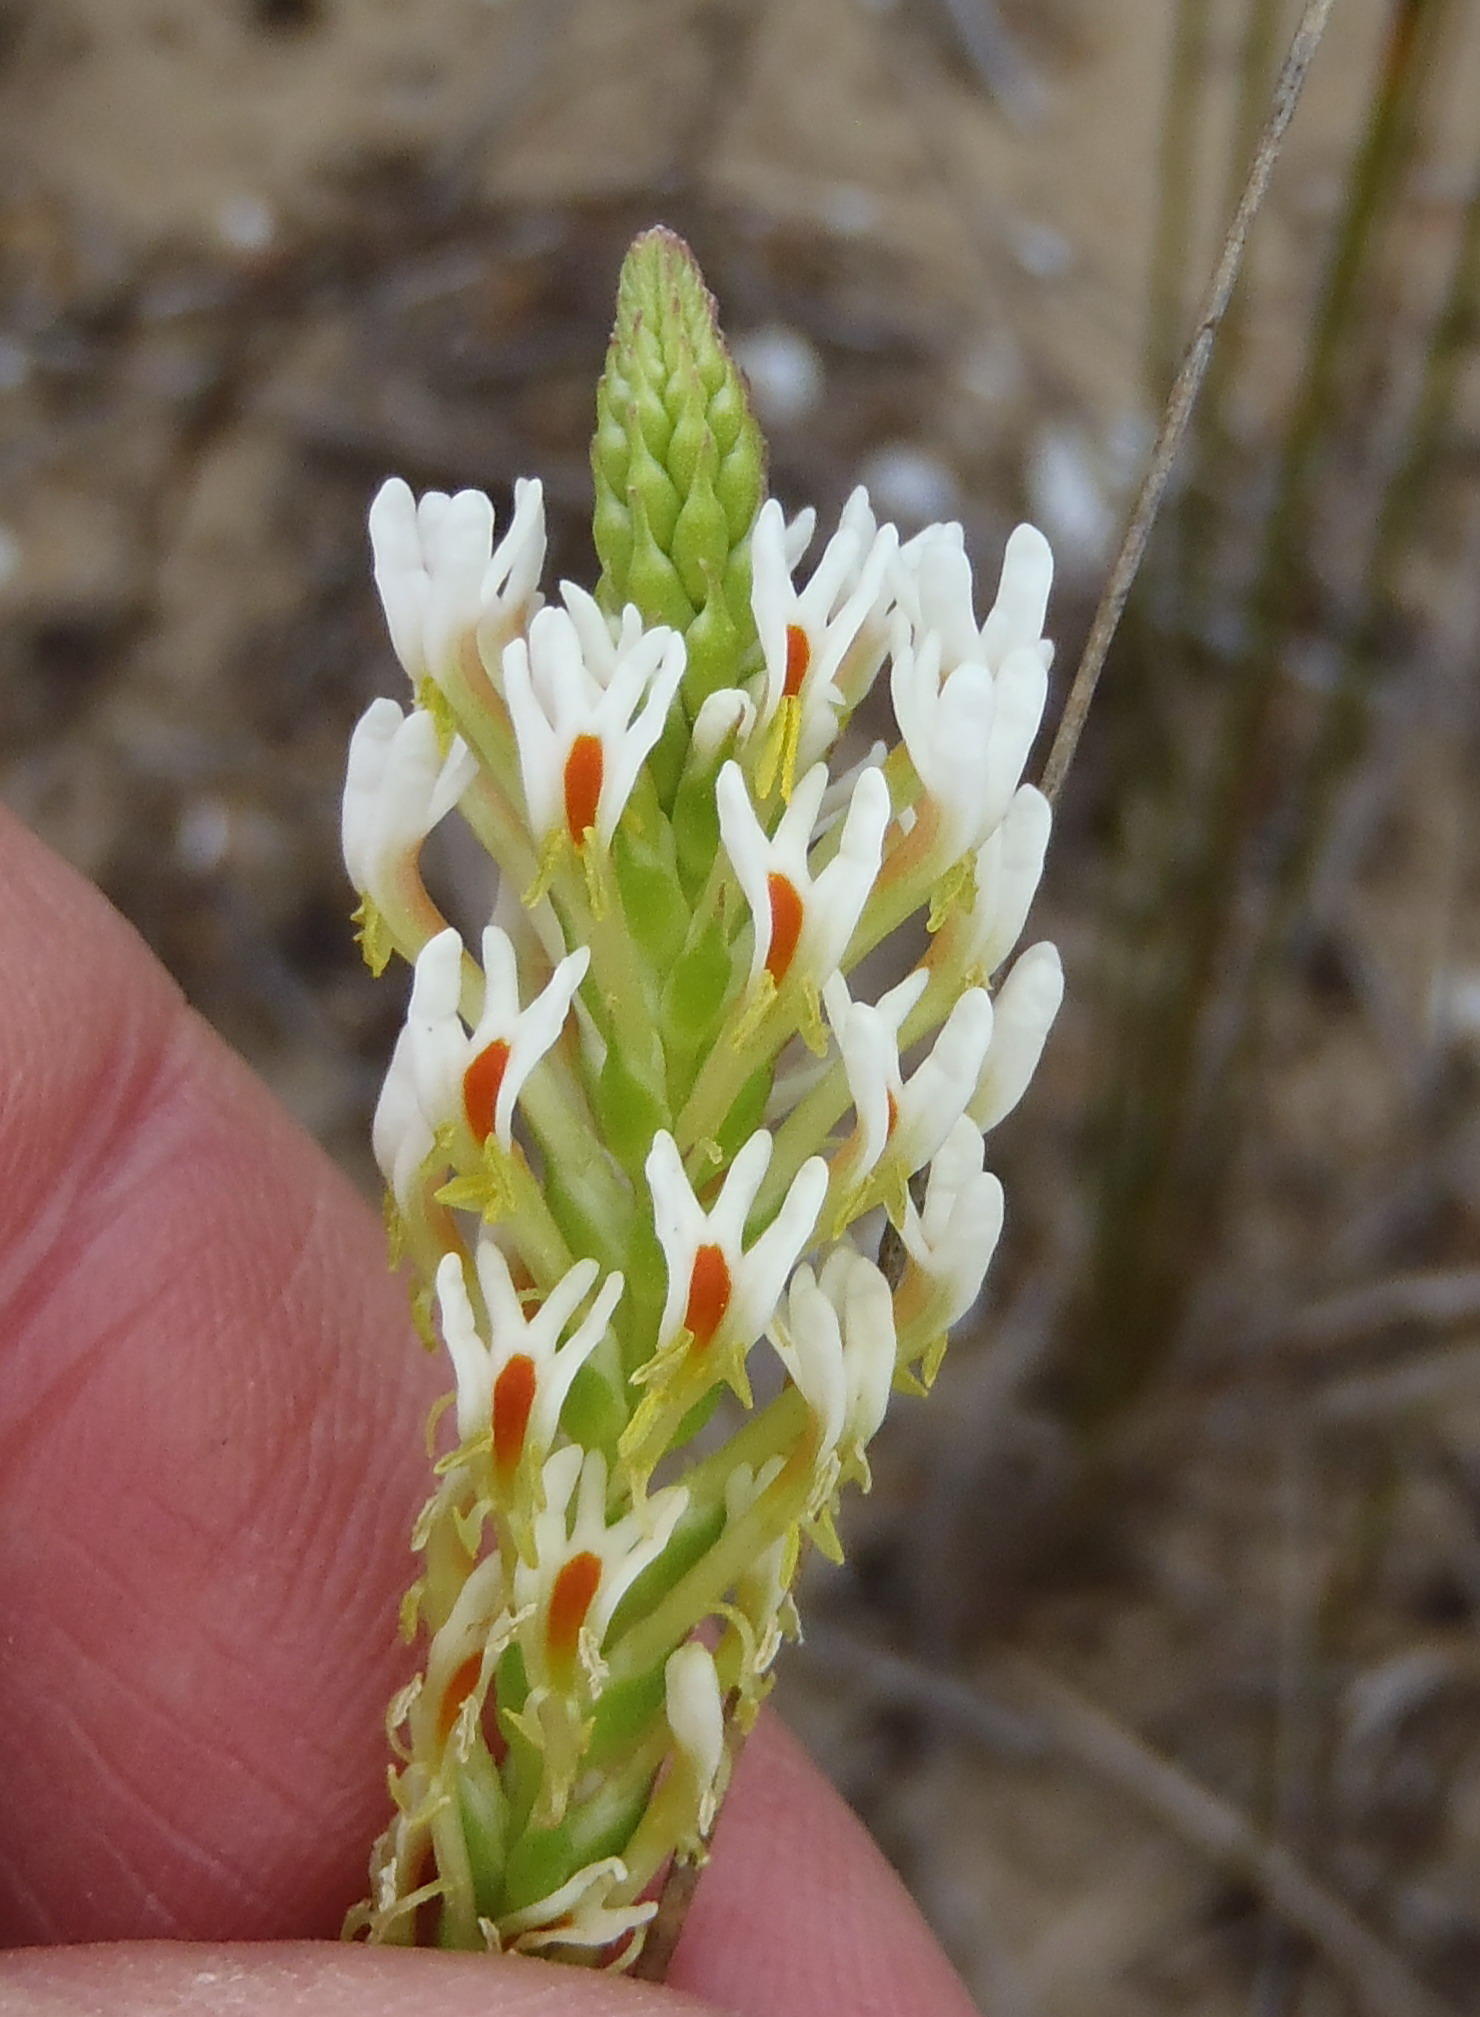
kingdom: Plantae
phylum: Tracheophyta
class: Magnoliopsida
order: Lamiales
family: Scrophulariaceae
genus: Hebenstretia
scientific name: Hebenstretia integrifolia
